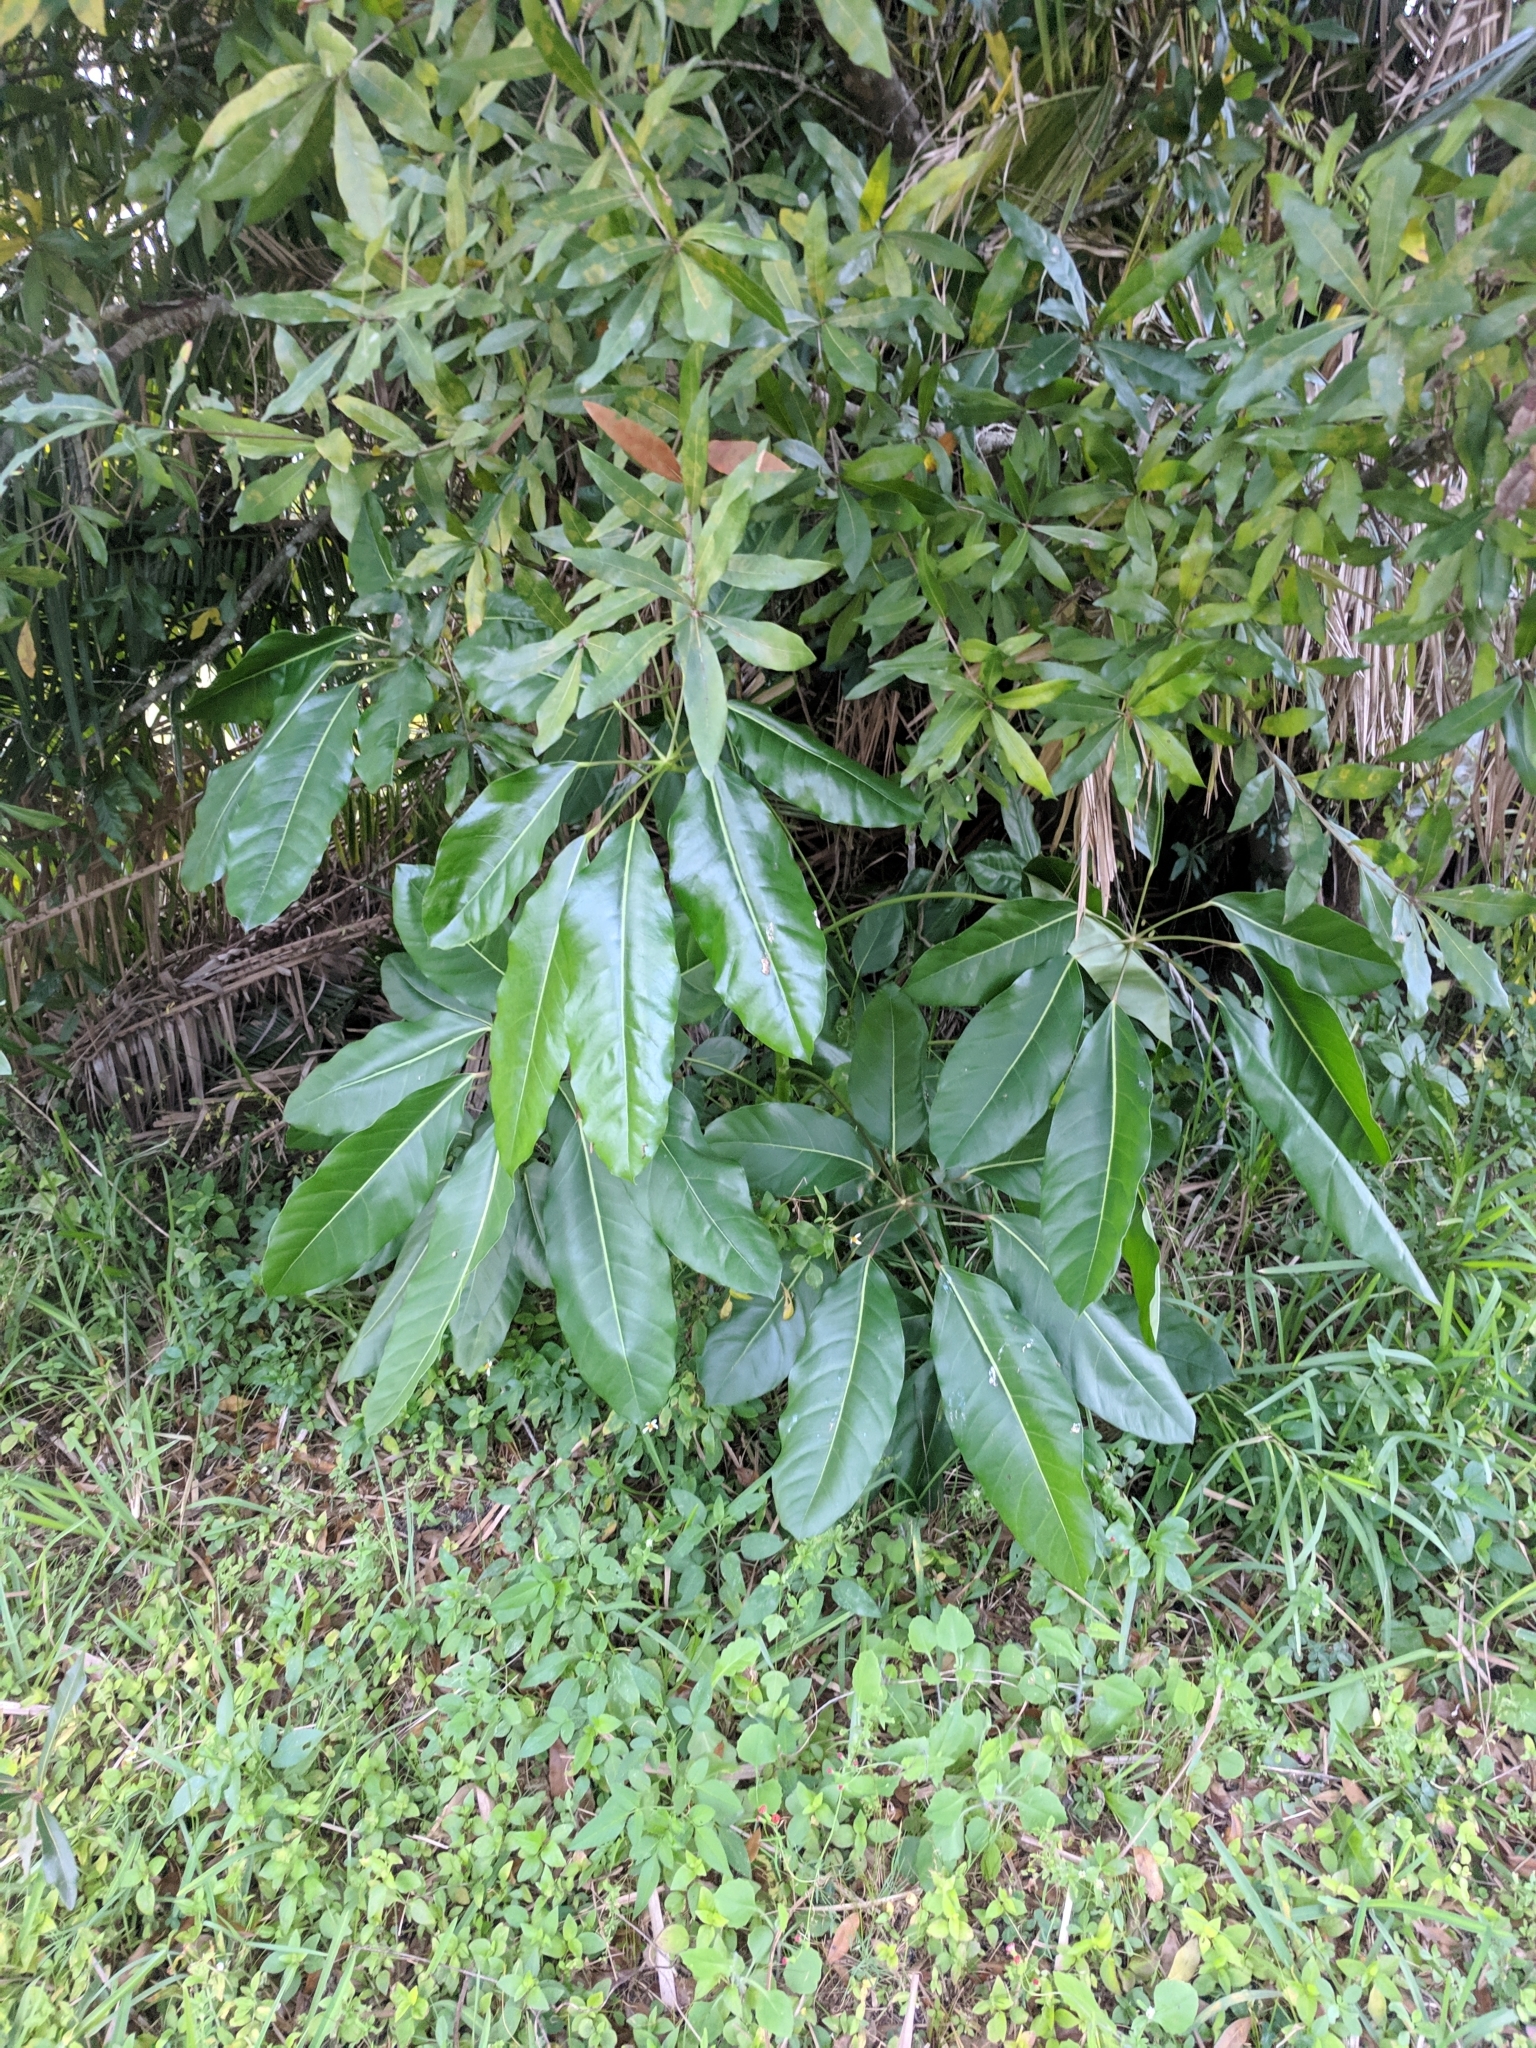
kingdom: Plantae
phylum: Tracheophyta
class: Magnoliopsida
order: Apiales
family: Araliaceae
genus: Heptapleurum
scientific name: Heptapleurum actinophyllum
